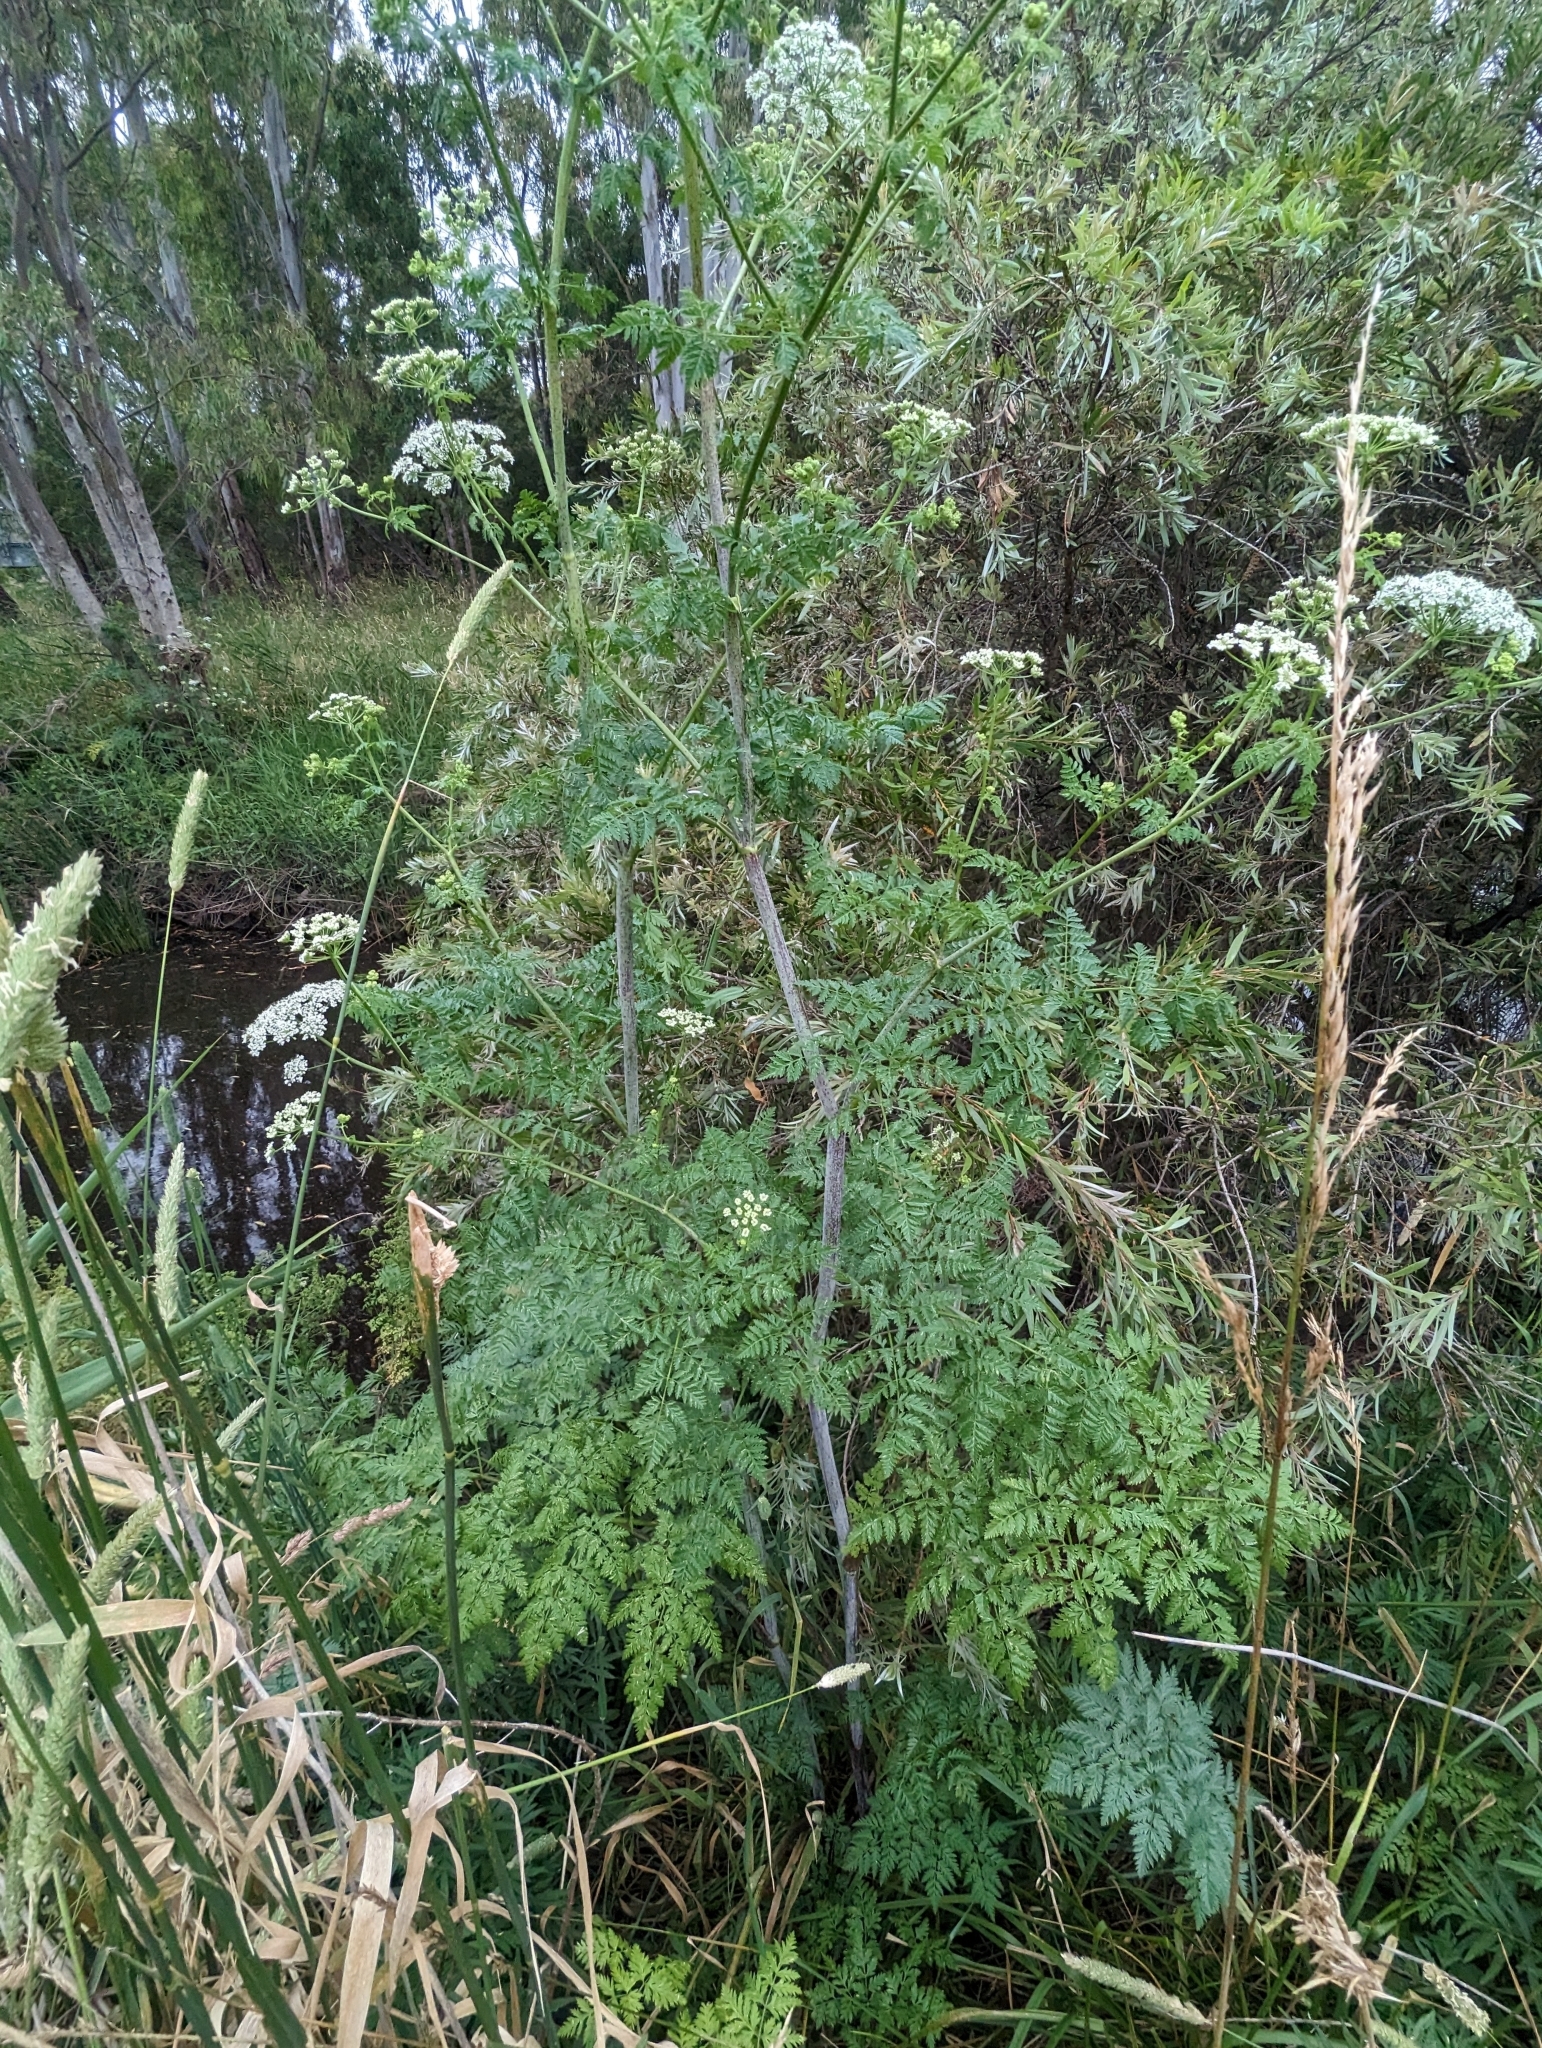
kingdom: Plantae
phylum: Tracheophyta
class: Magnoliopsida
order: Apiales
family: Apiaceae
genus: Conium
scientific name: Conium maculatum
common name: Hemlock
